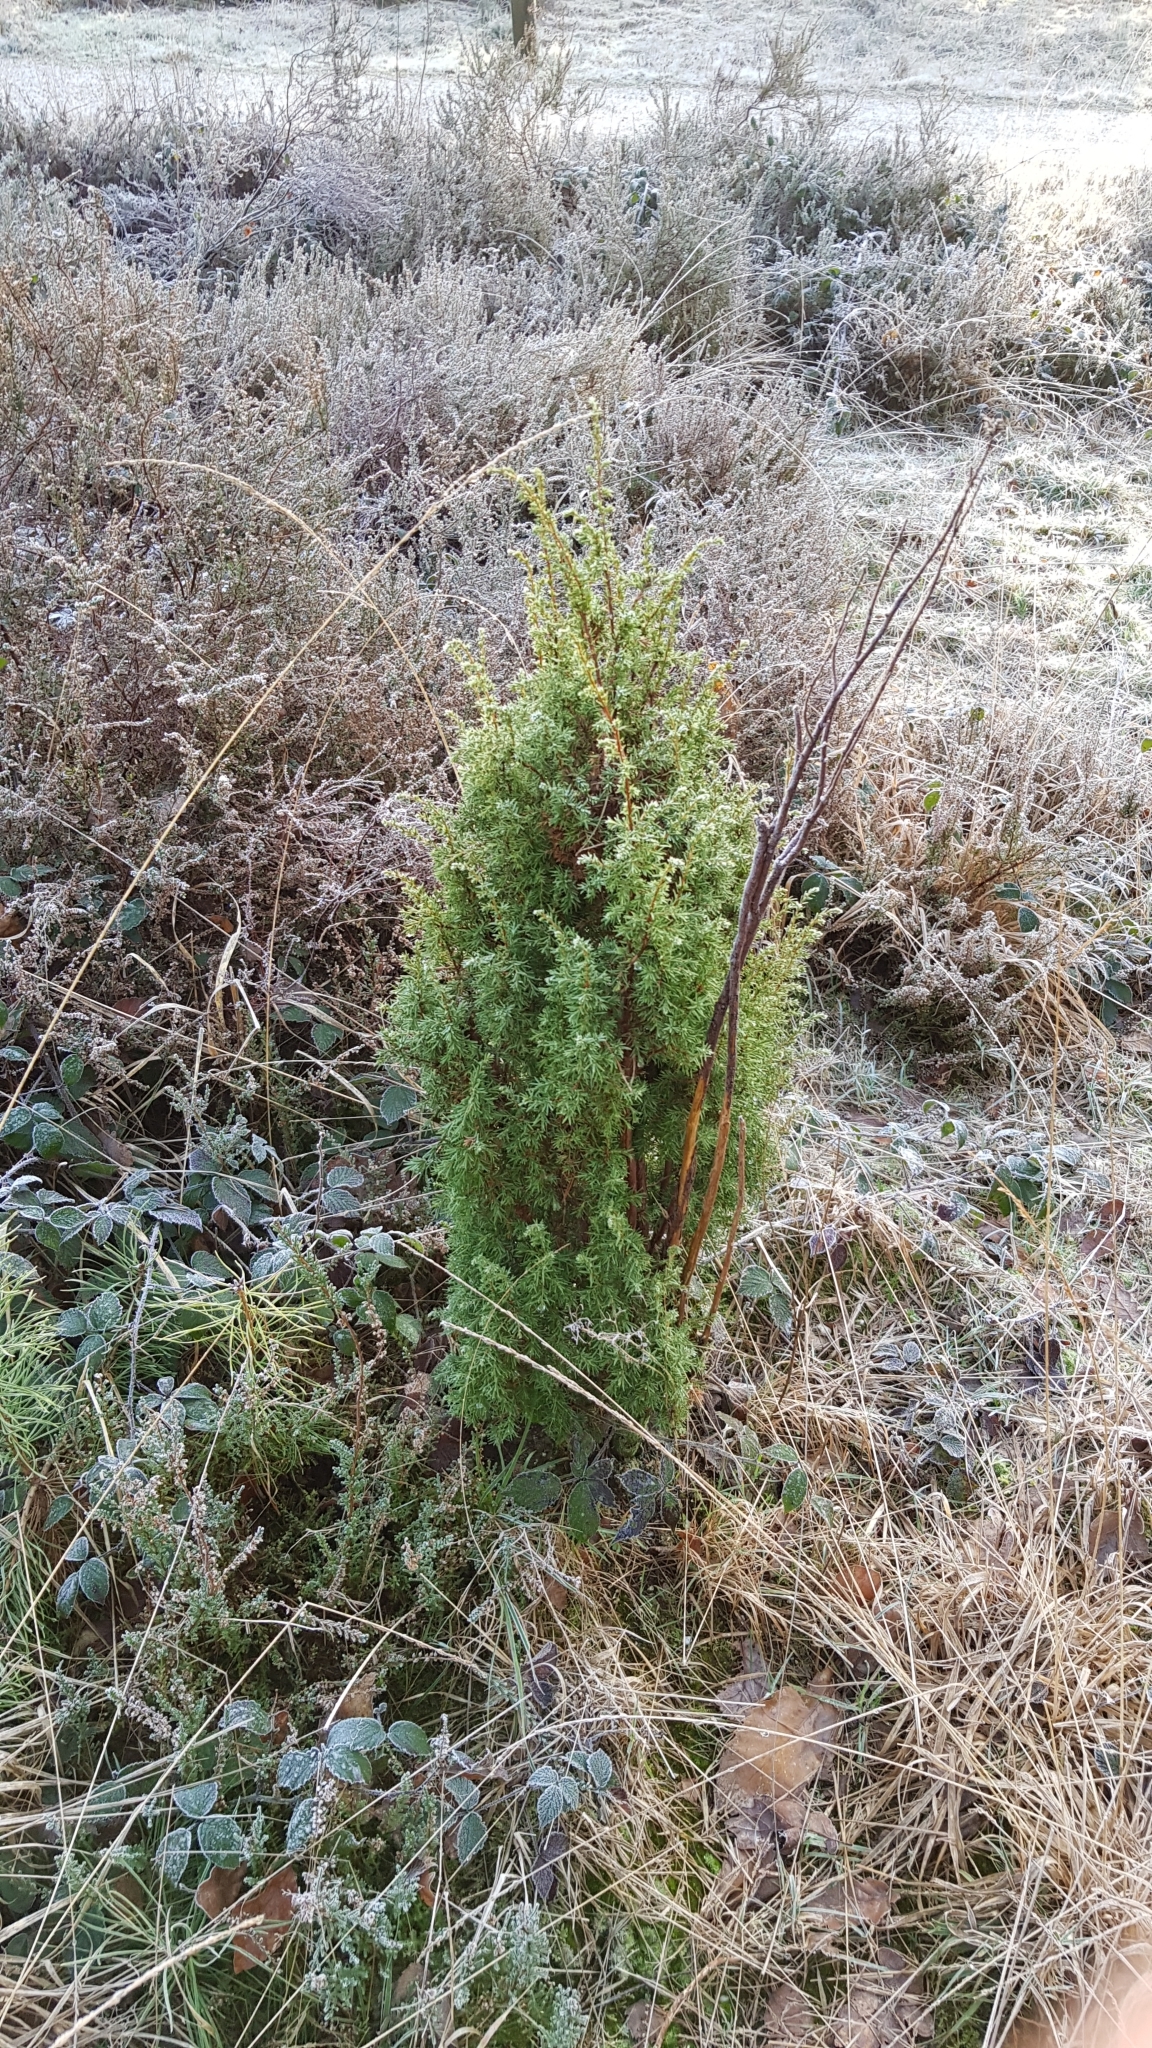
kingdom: Plantae
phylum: Tracheophyta
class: Pinopsida
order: Pinales
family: Cupressaceae
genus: Juniperus
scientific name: Juniperus communis
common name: Common juniper
